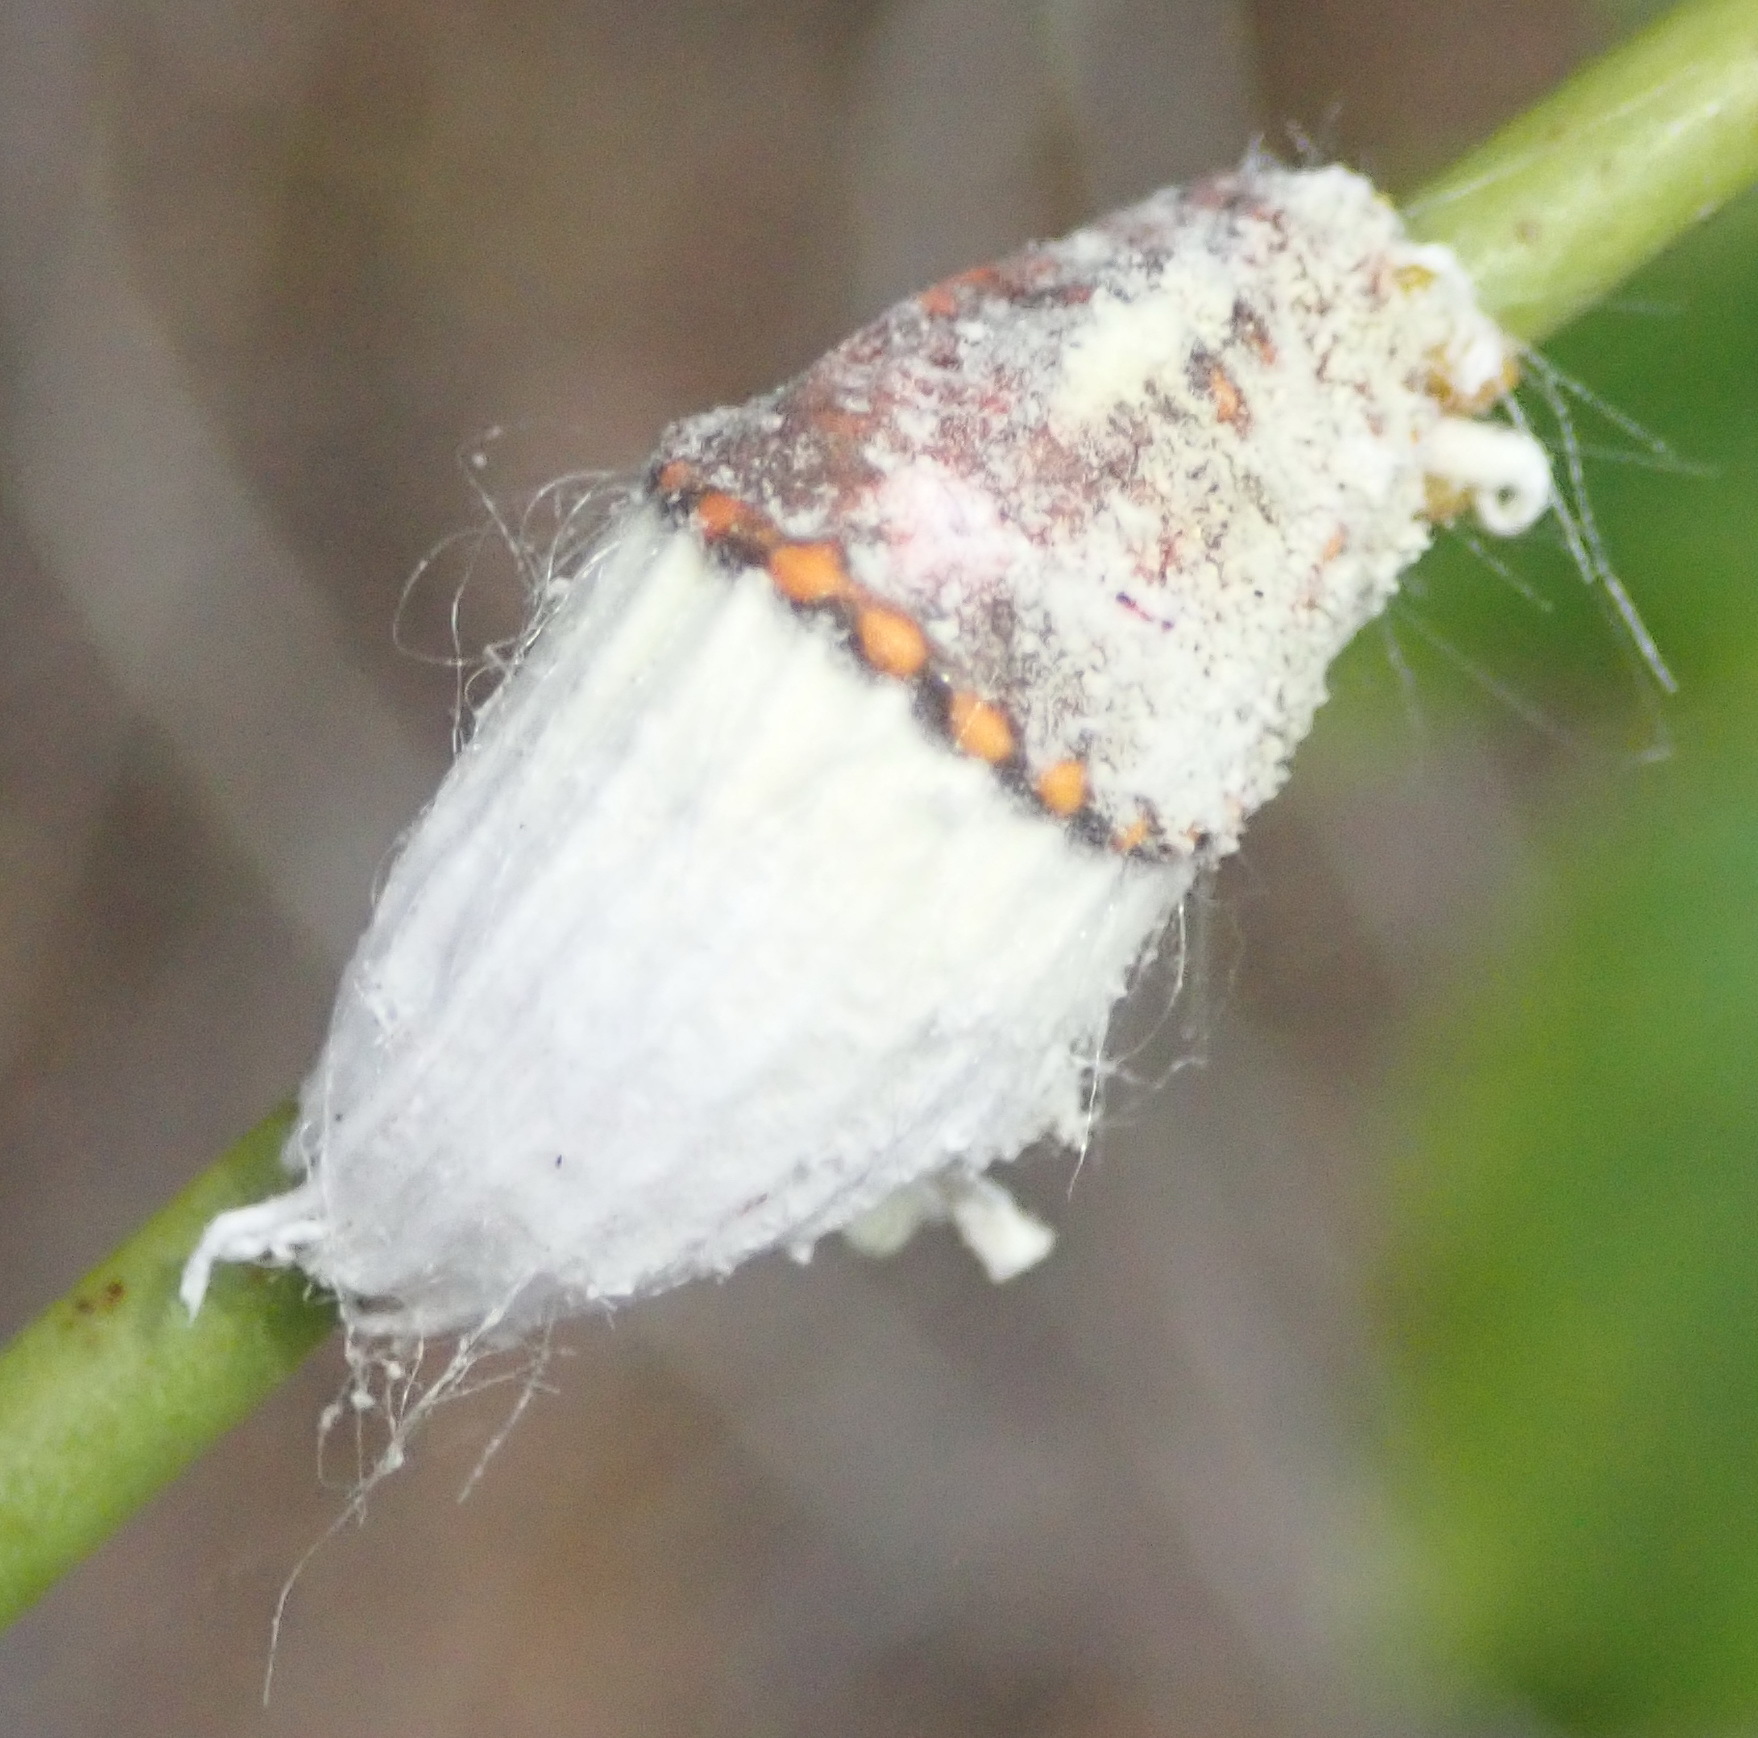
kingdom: Animalia
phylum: Arthropoda
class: Insecta
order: Hemiptera
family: Margarodidae
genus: Icerya
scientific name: Icerya purchasi
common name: Cottony cushion scale
